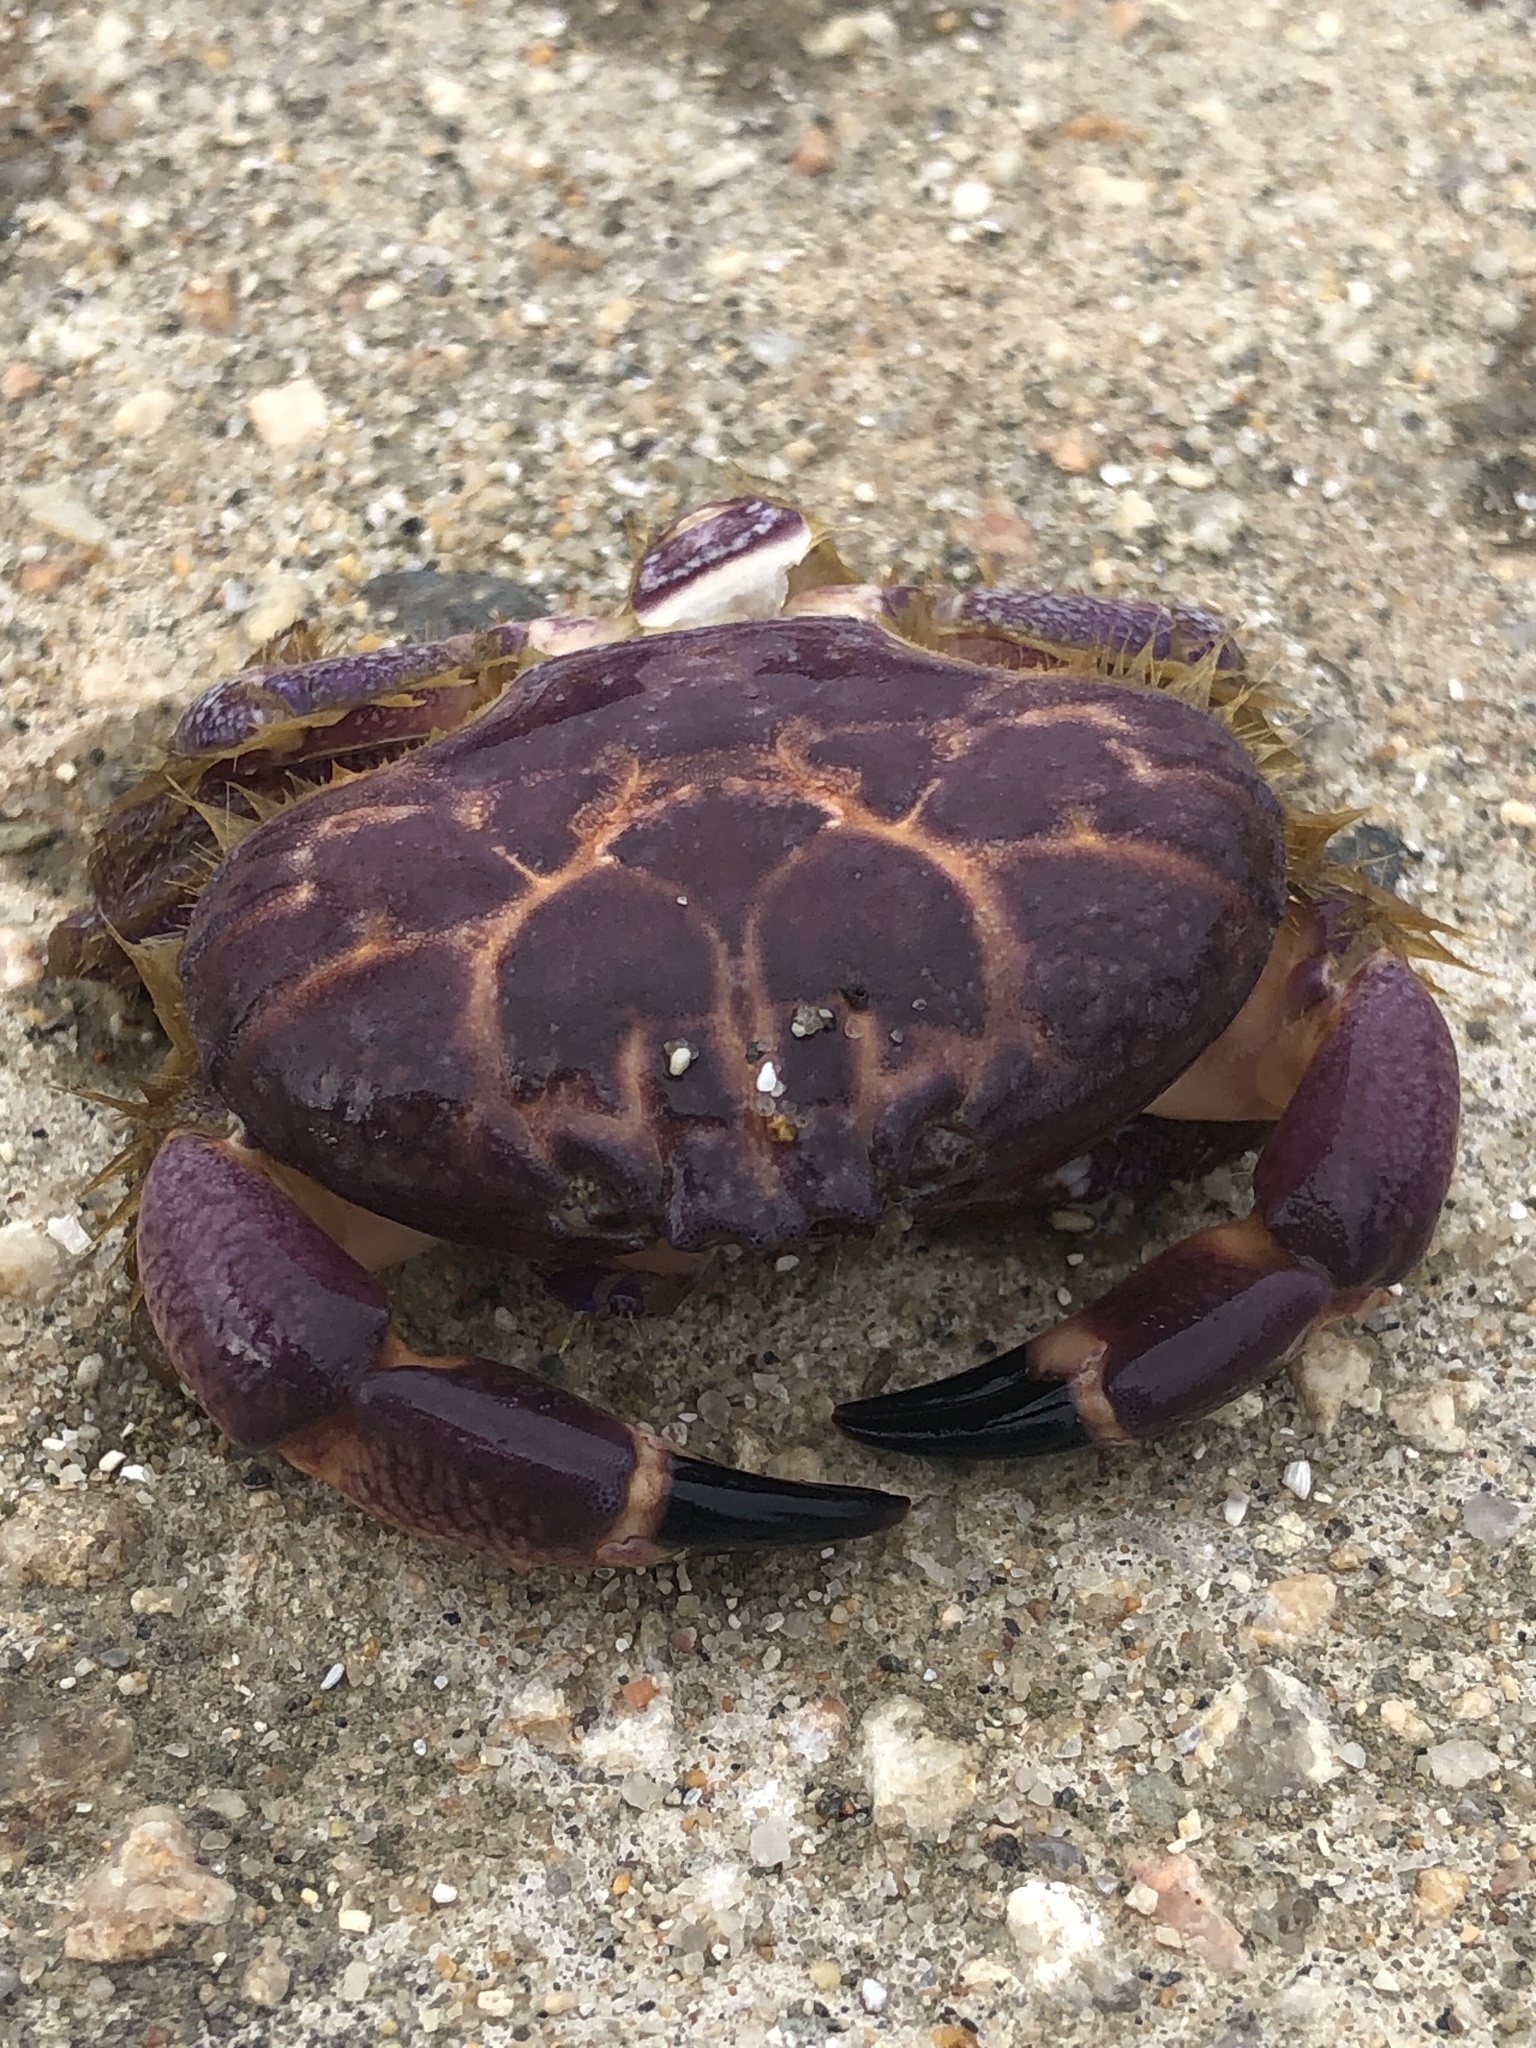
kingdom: Animalia
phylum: Arthropoda
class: Malacostraca
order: Decapoda
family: Xanthidae
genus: Paraxanthus
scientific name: Paraxanthus barbiger
